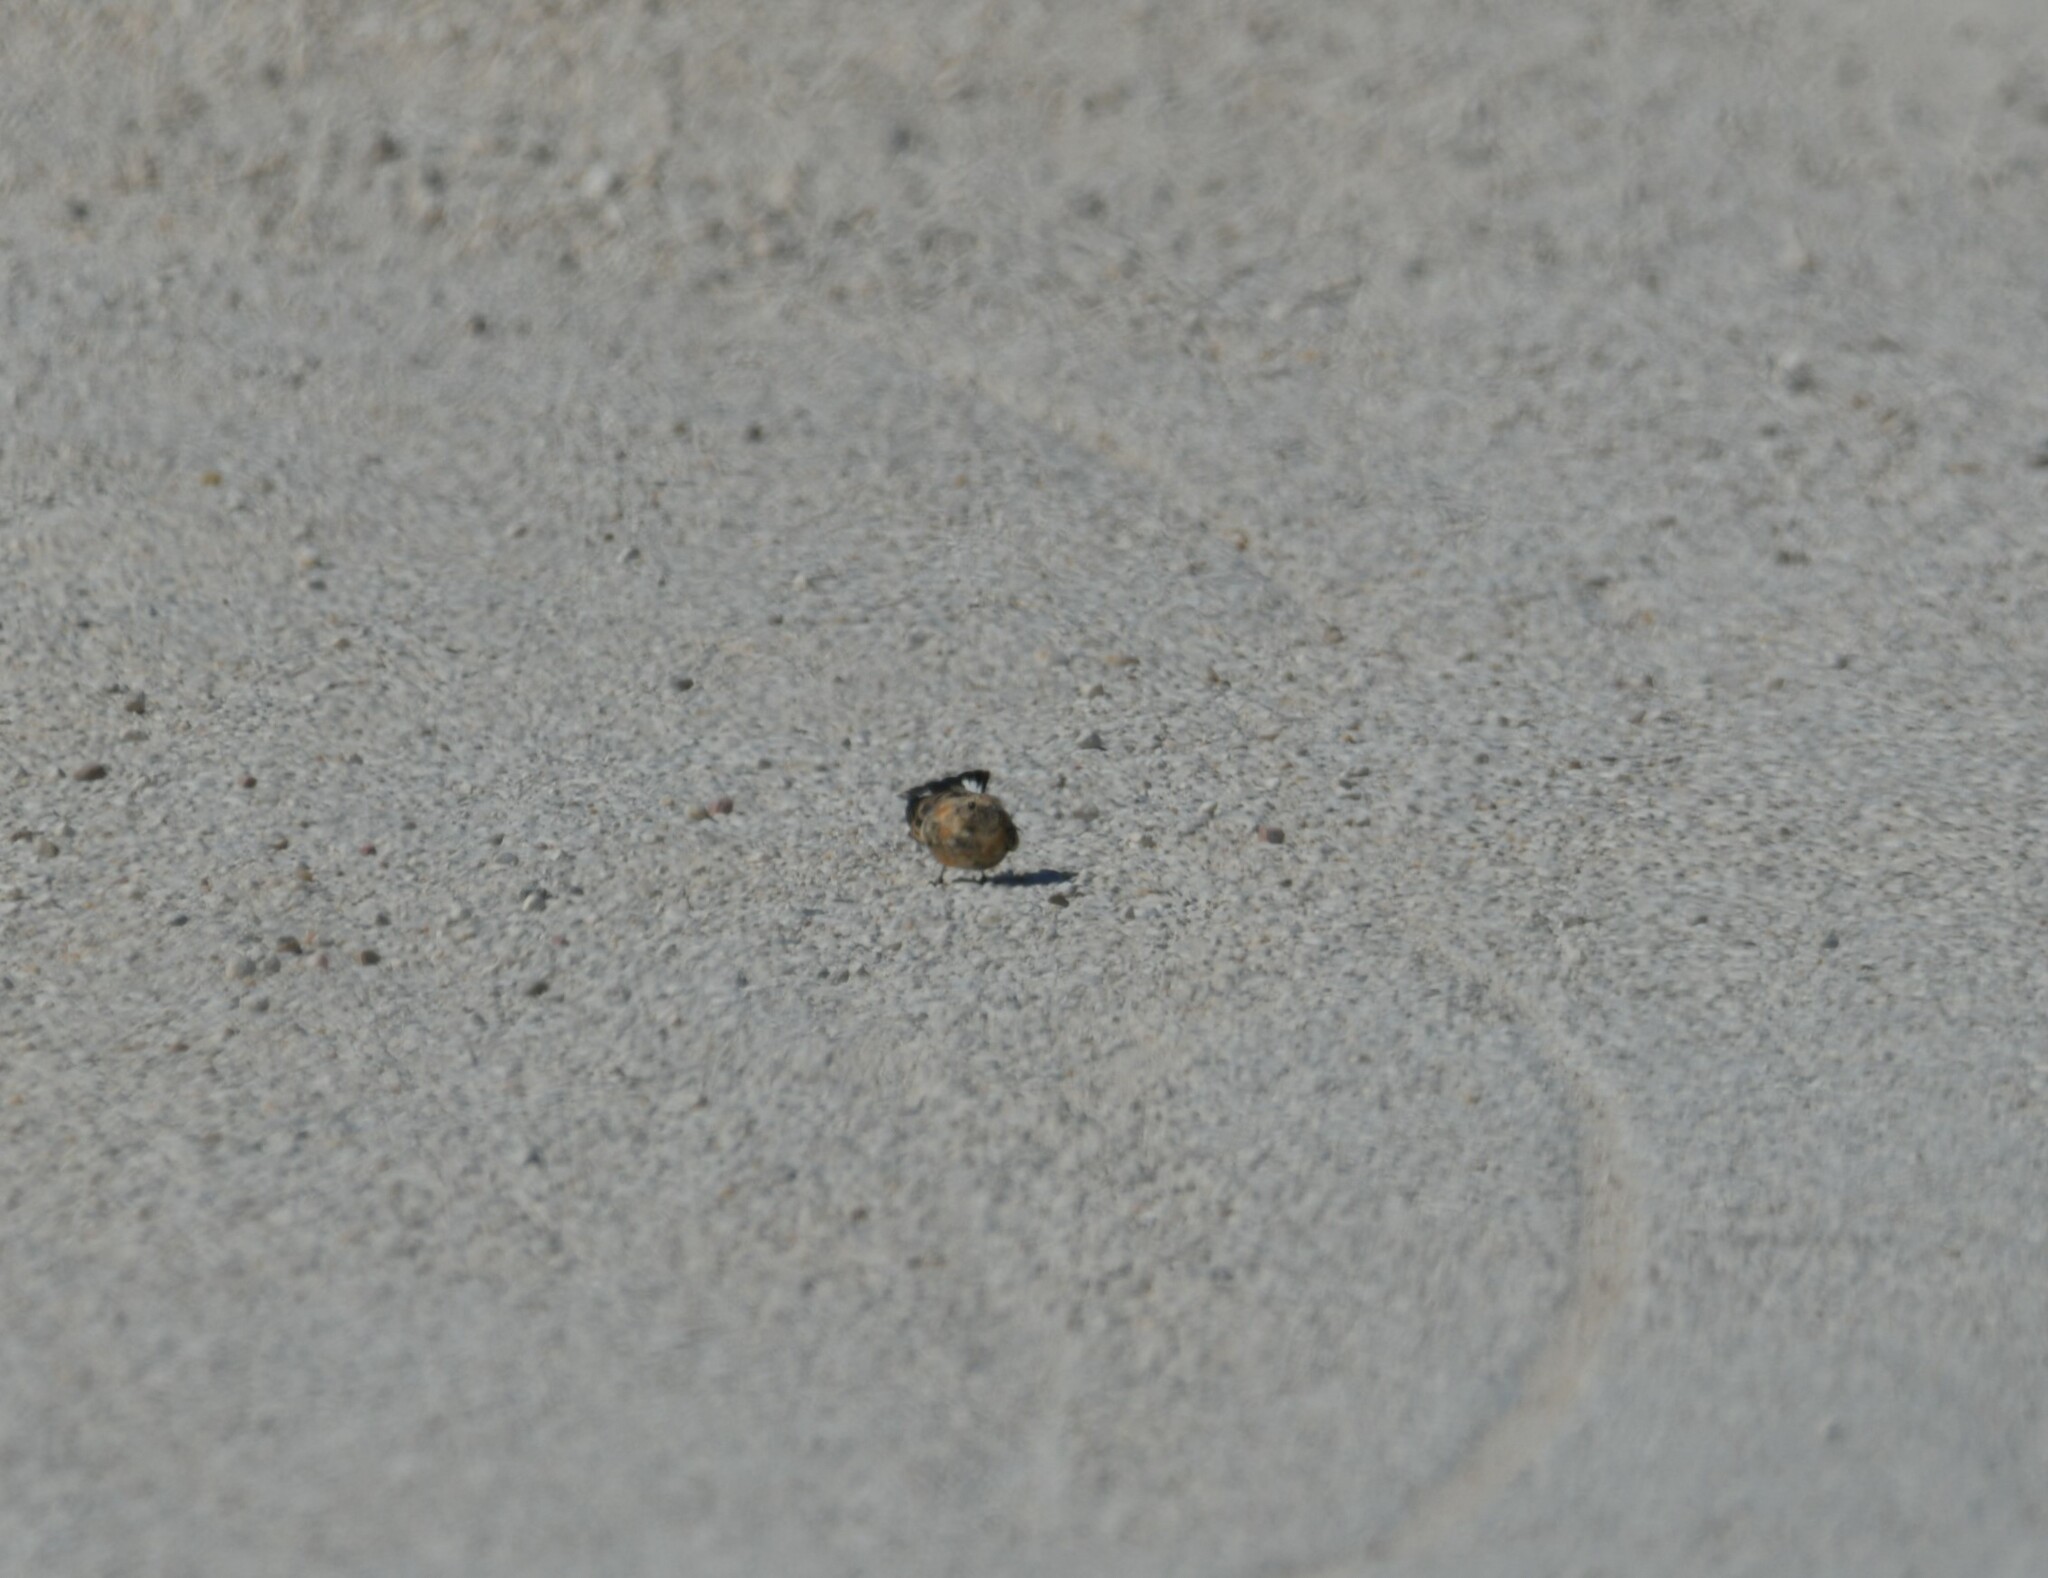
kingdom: Animalia
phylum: Chordata
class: Aves
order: Passeriformes
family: Muscicapidae
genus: Oenanthe
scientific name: Oenanthe hispanica
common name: Black-eared wheatear
